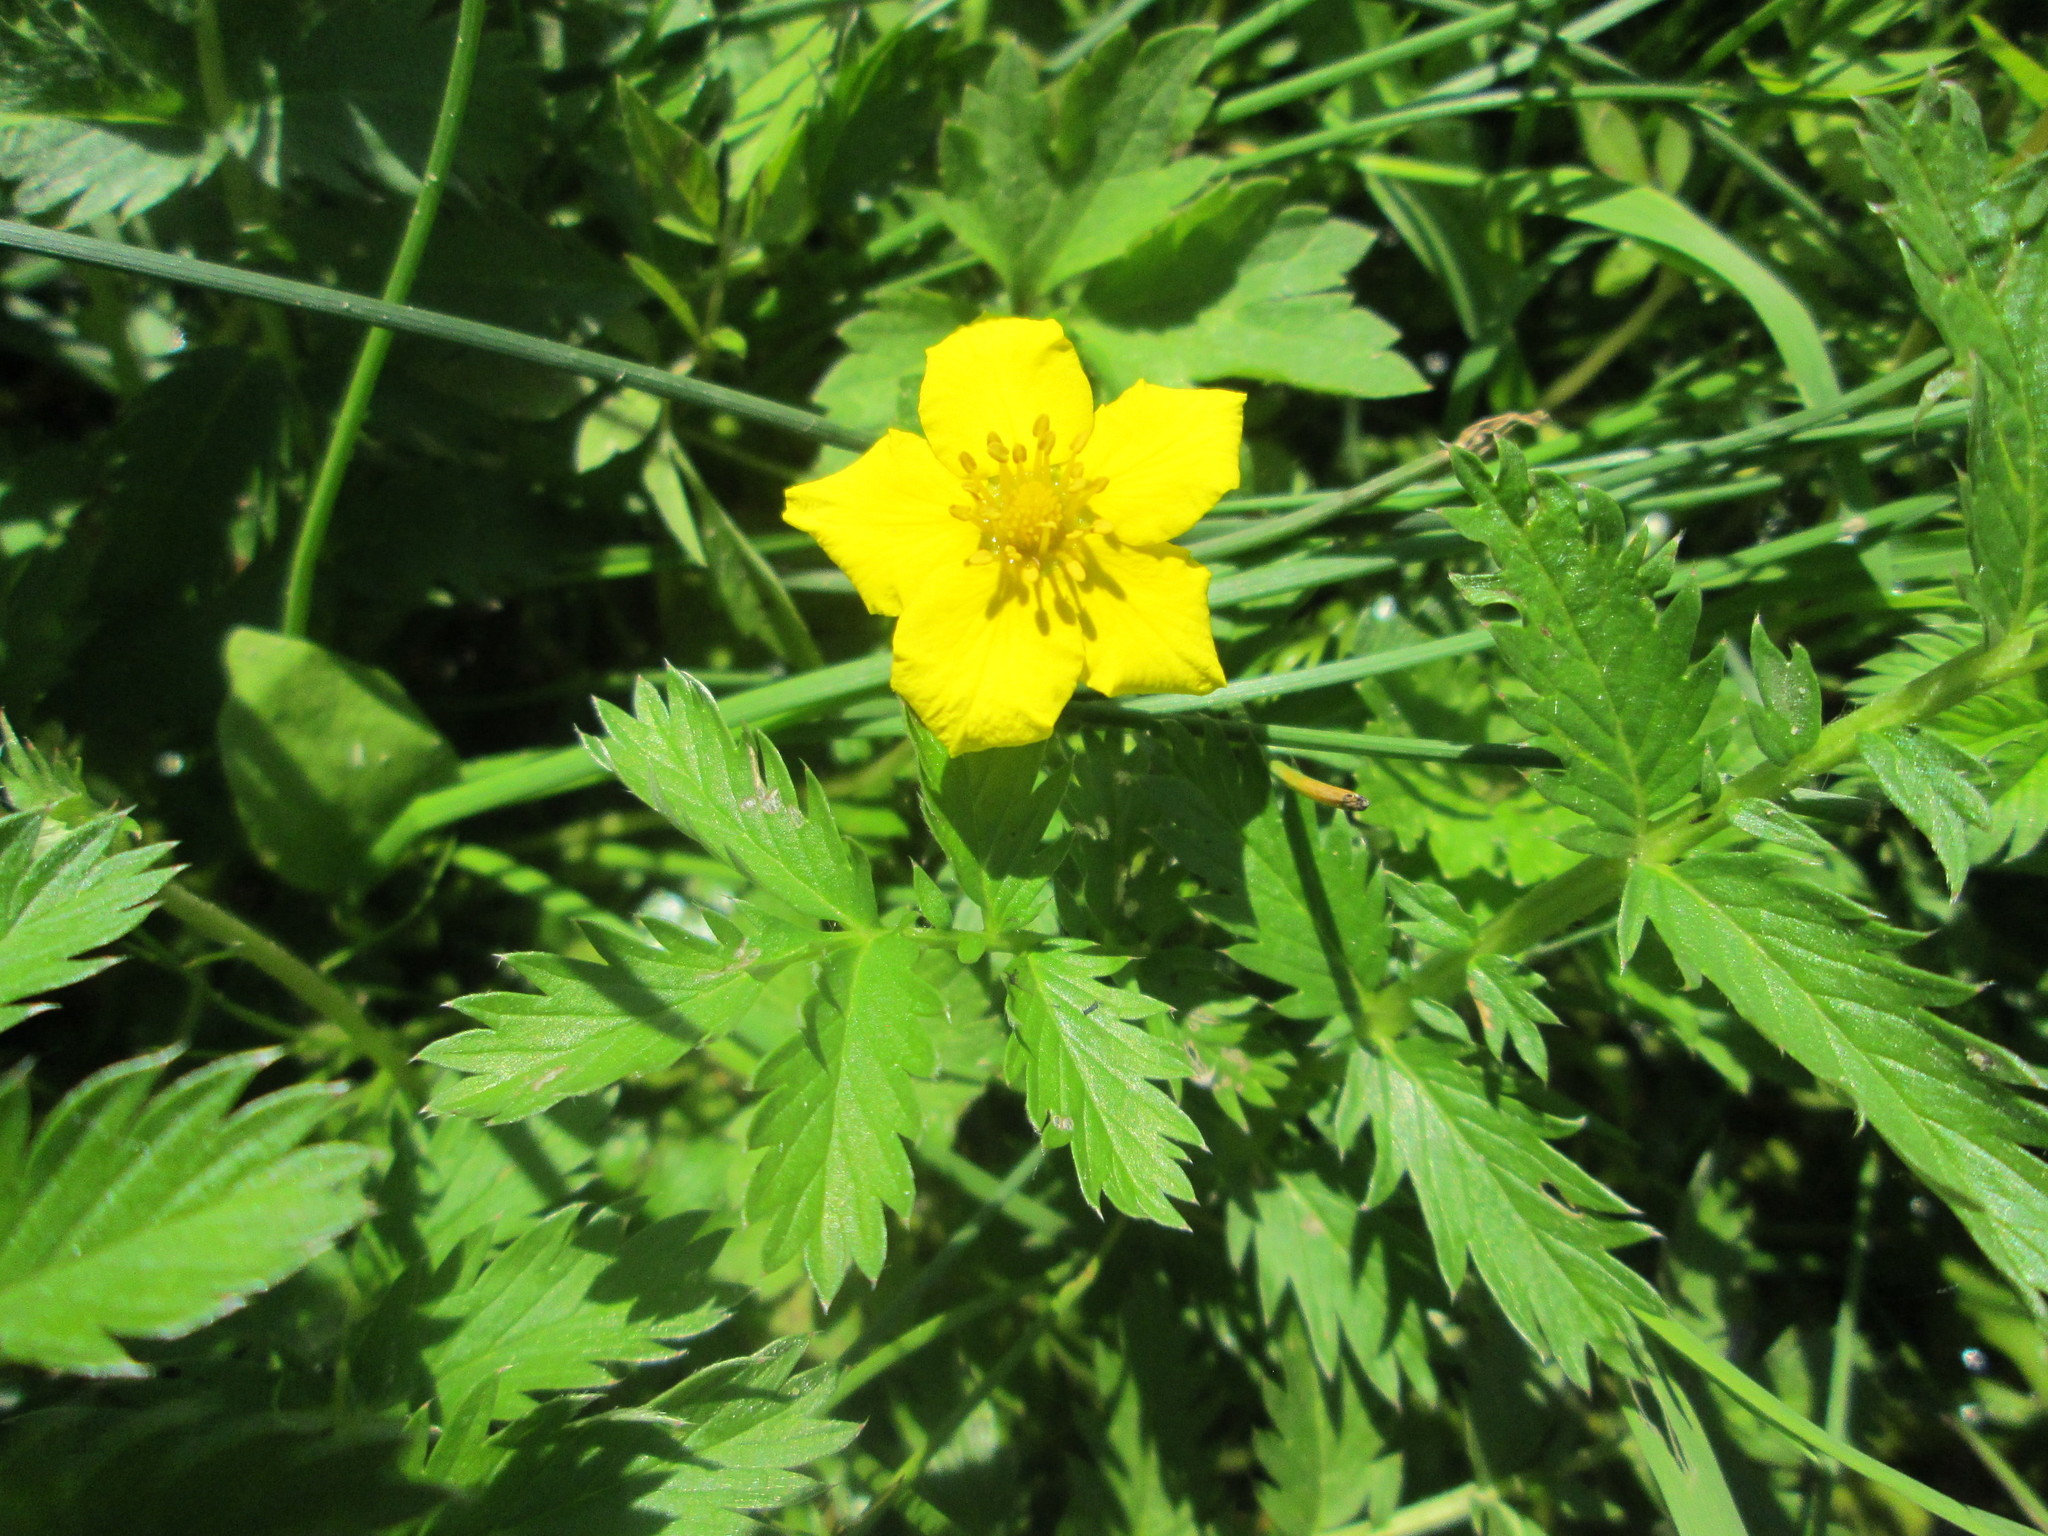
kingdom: Plantae
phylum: Tracheophyta
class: Magnoliopsida
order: Rosales
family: Rosaceae
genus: Argentina
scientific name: Argentina anserina
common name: Common silverweed
